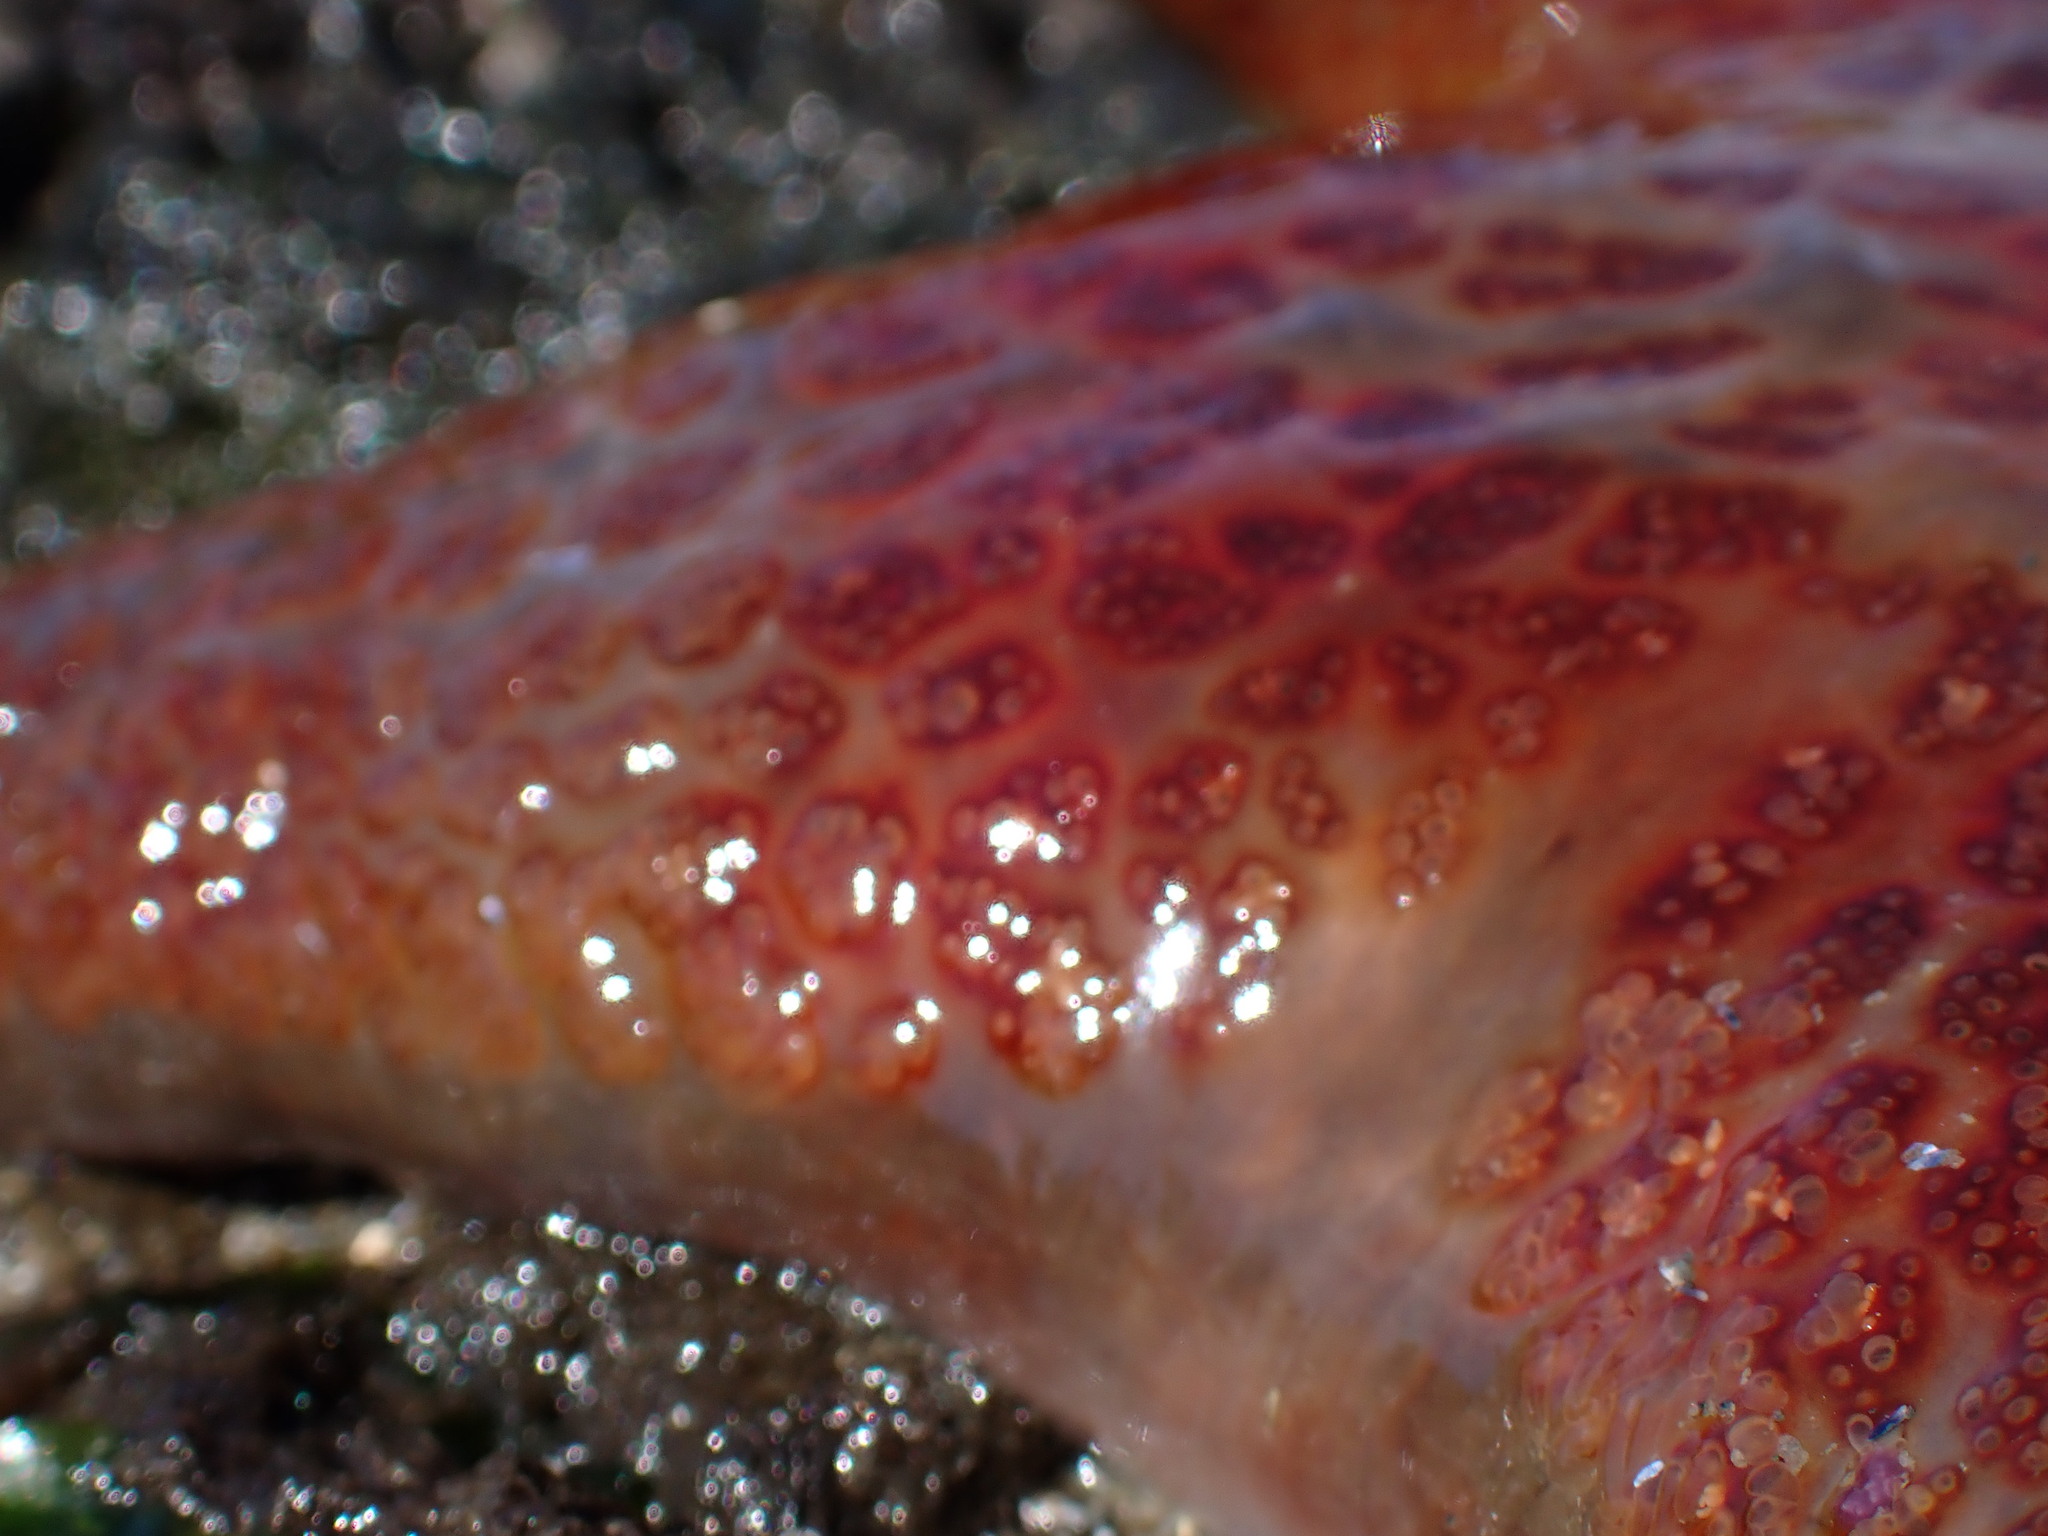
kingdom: Animalia
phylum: Echinodermata
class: Asteroidea
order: Valvatida
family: Asteropseidae
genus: Dermasterias
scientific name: Dermasterias imbricata
